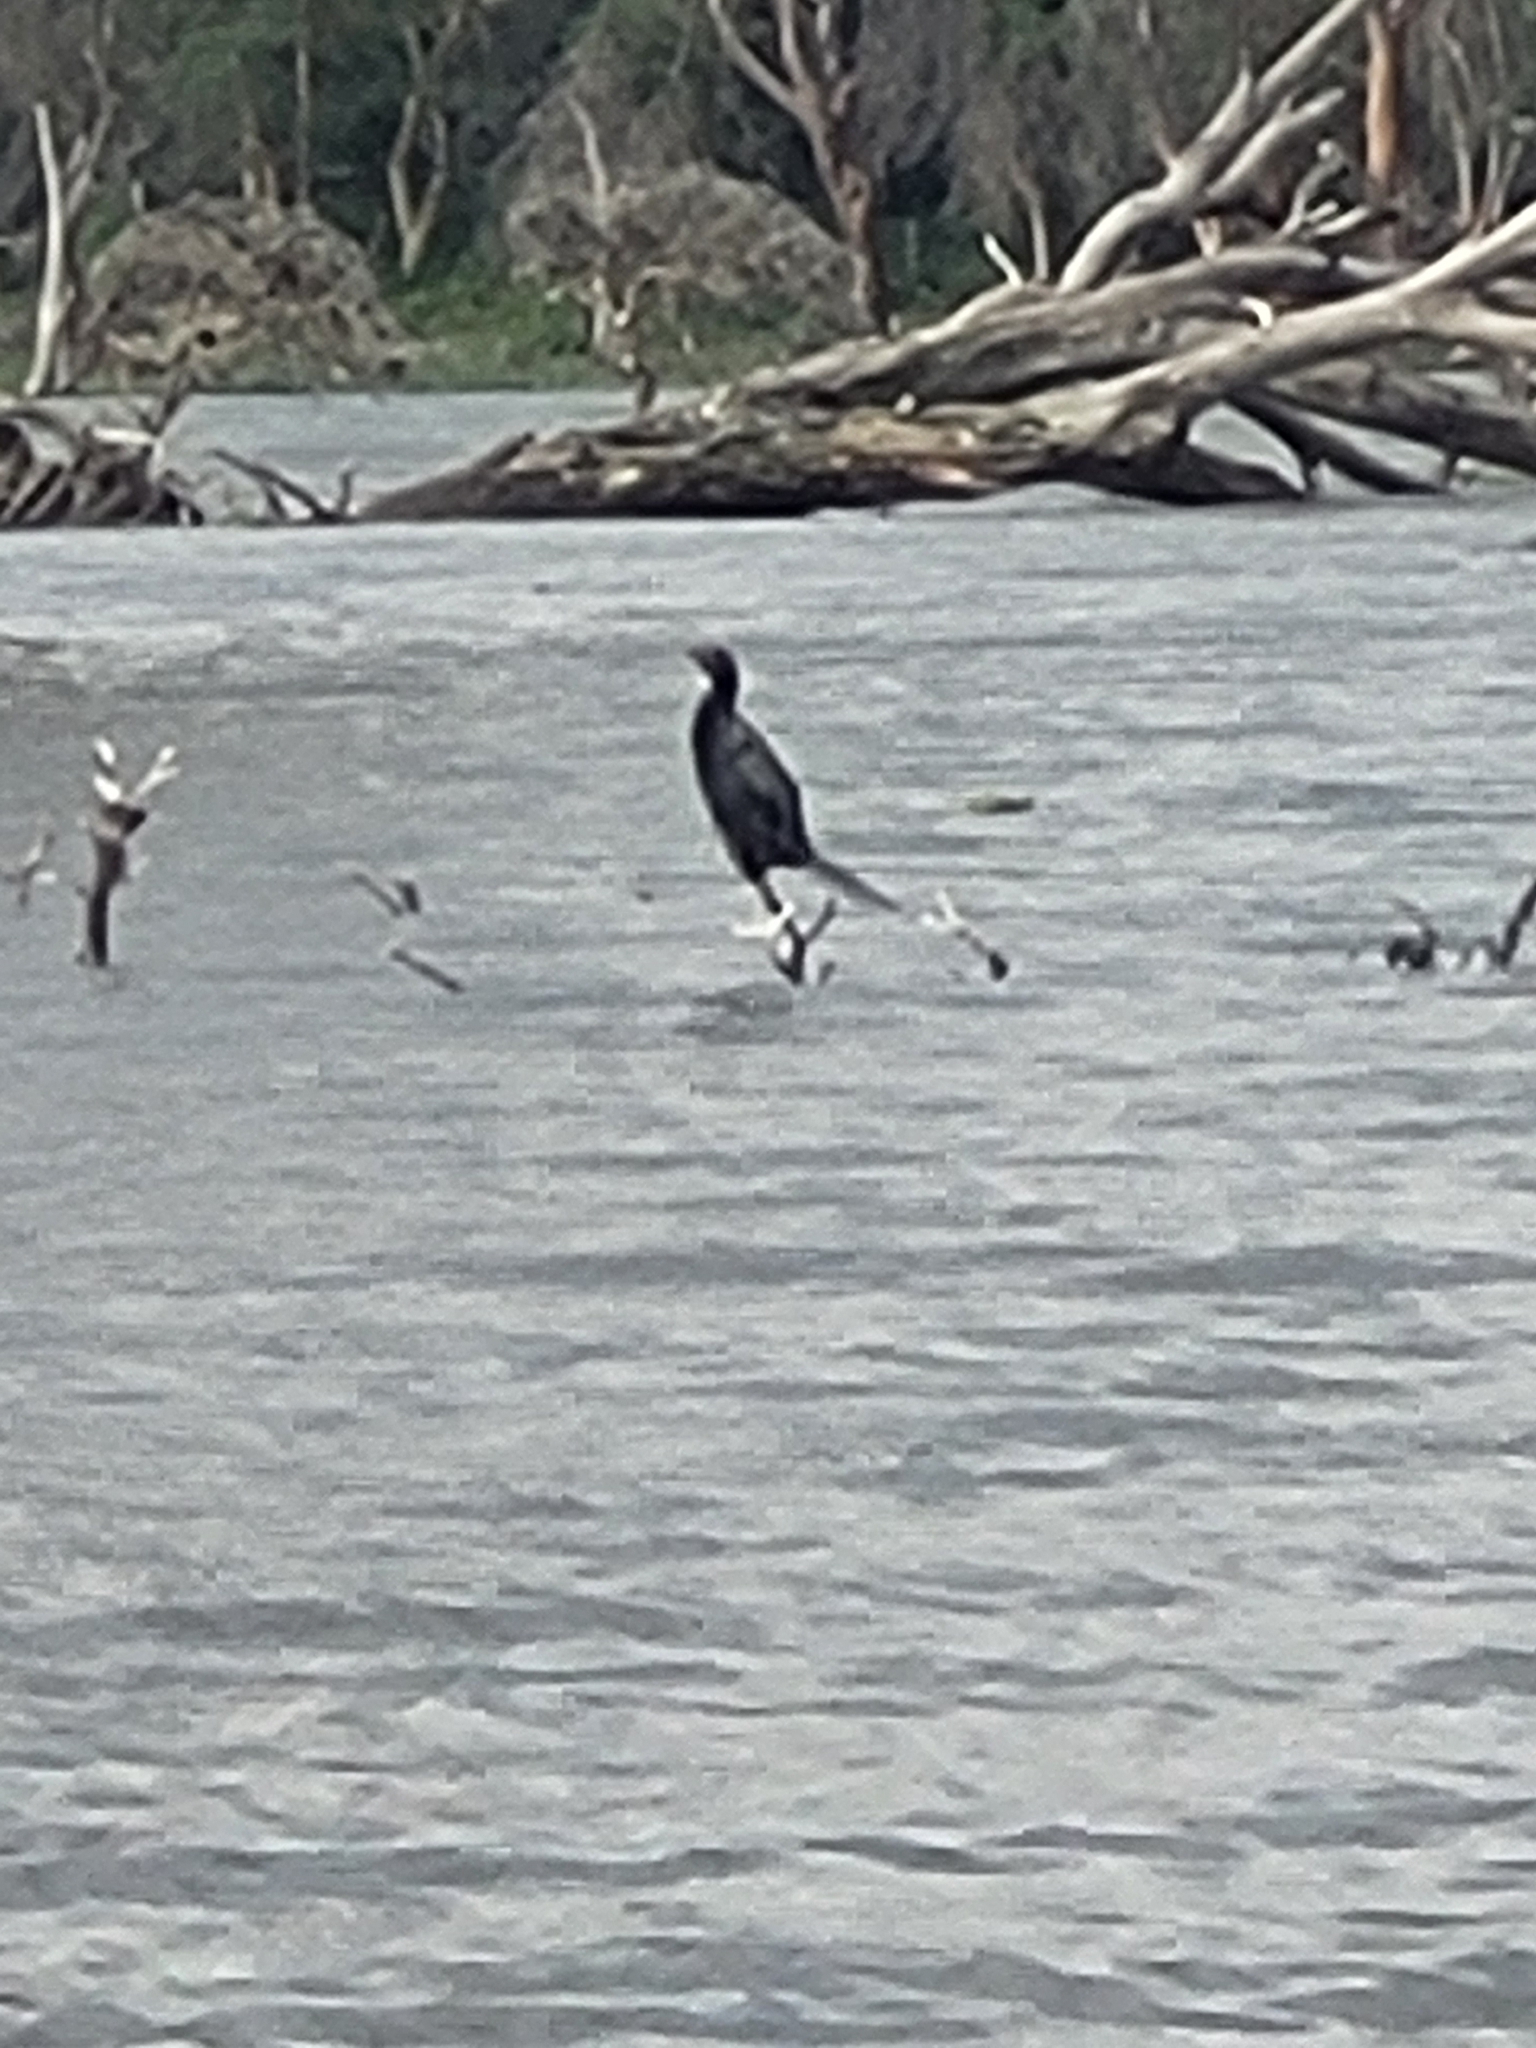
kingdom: Animalia
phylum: Chordata
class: Aves
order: Suliformes
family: Phalacrocoracidae
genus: Microcarbo
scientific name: Microcarbo africanus
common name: Long-tailed cormorant
